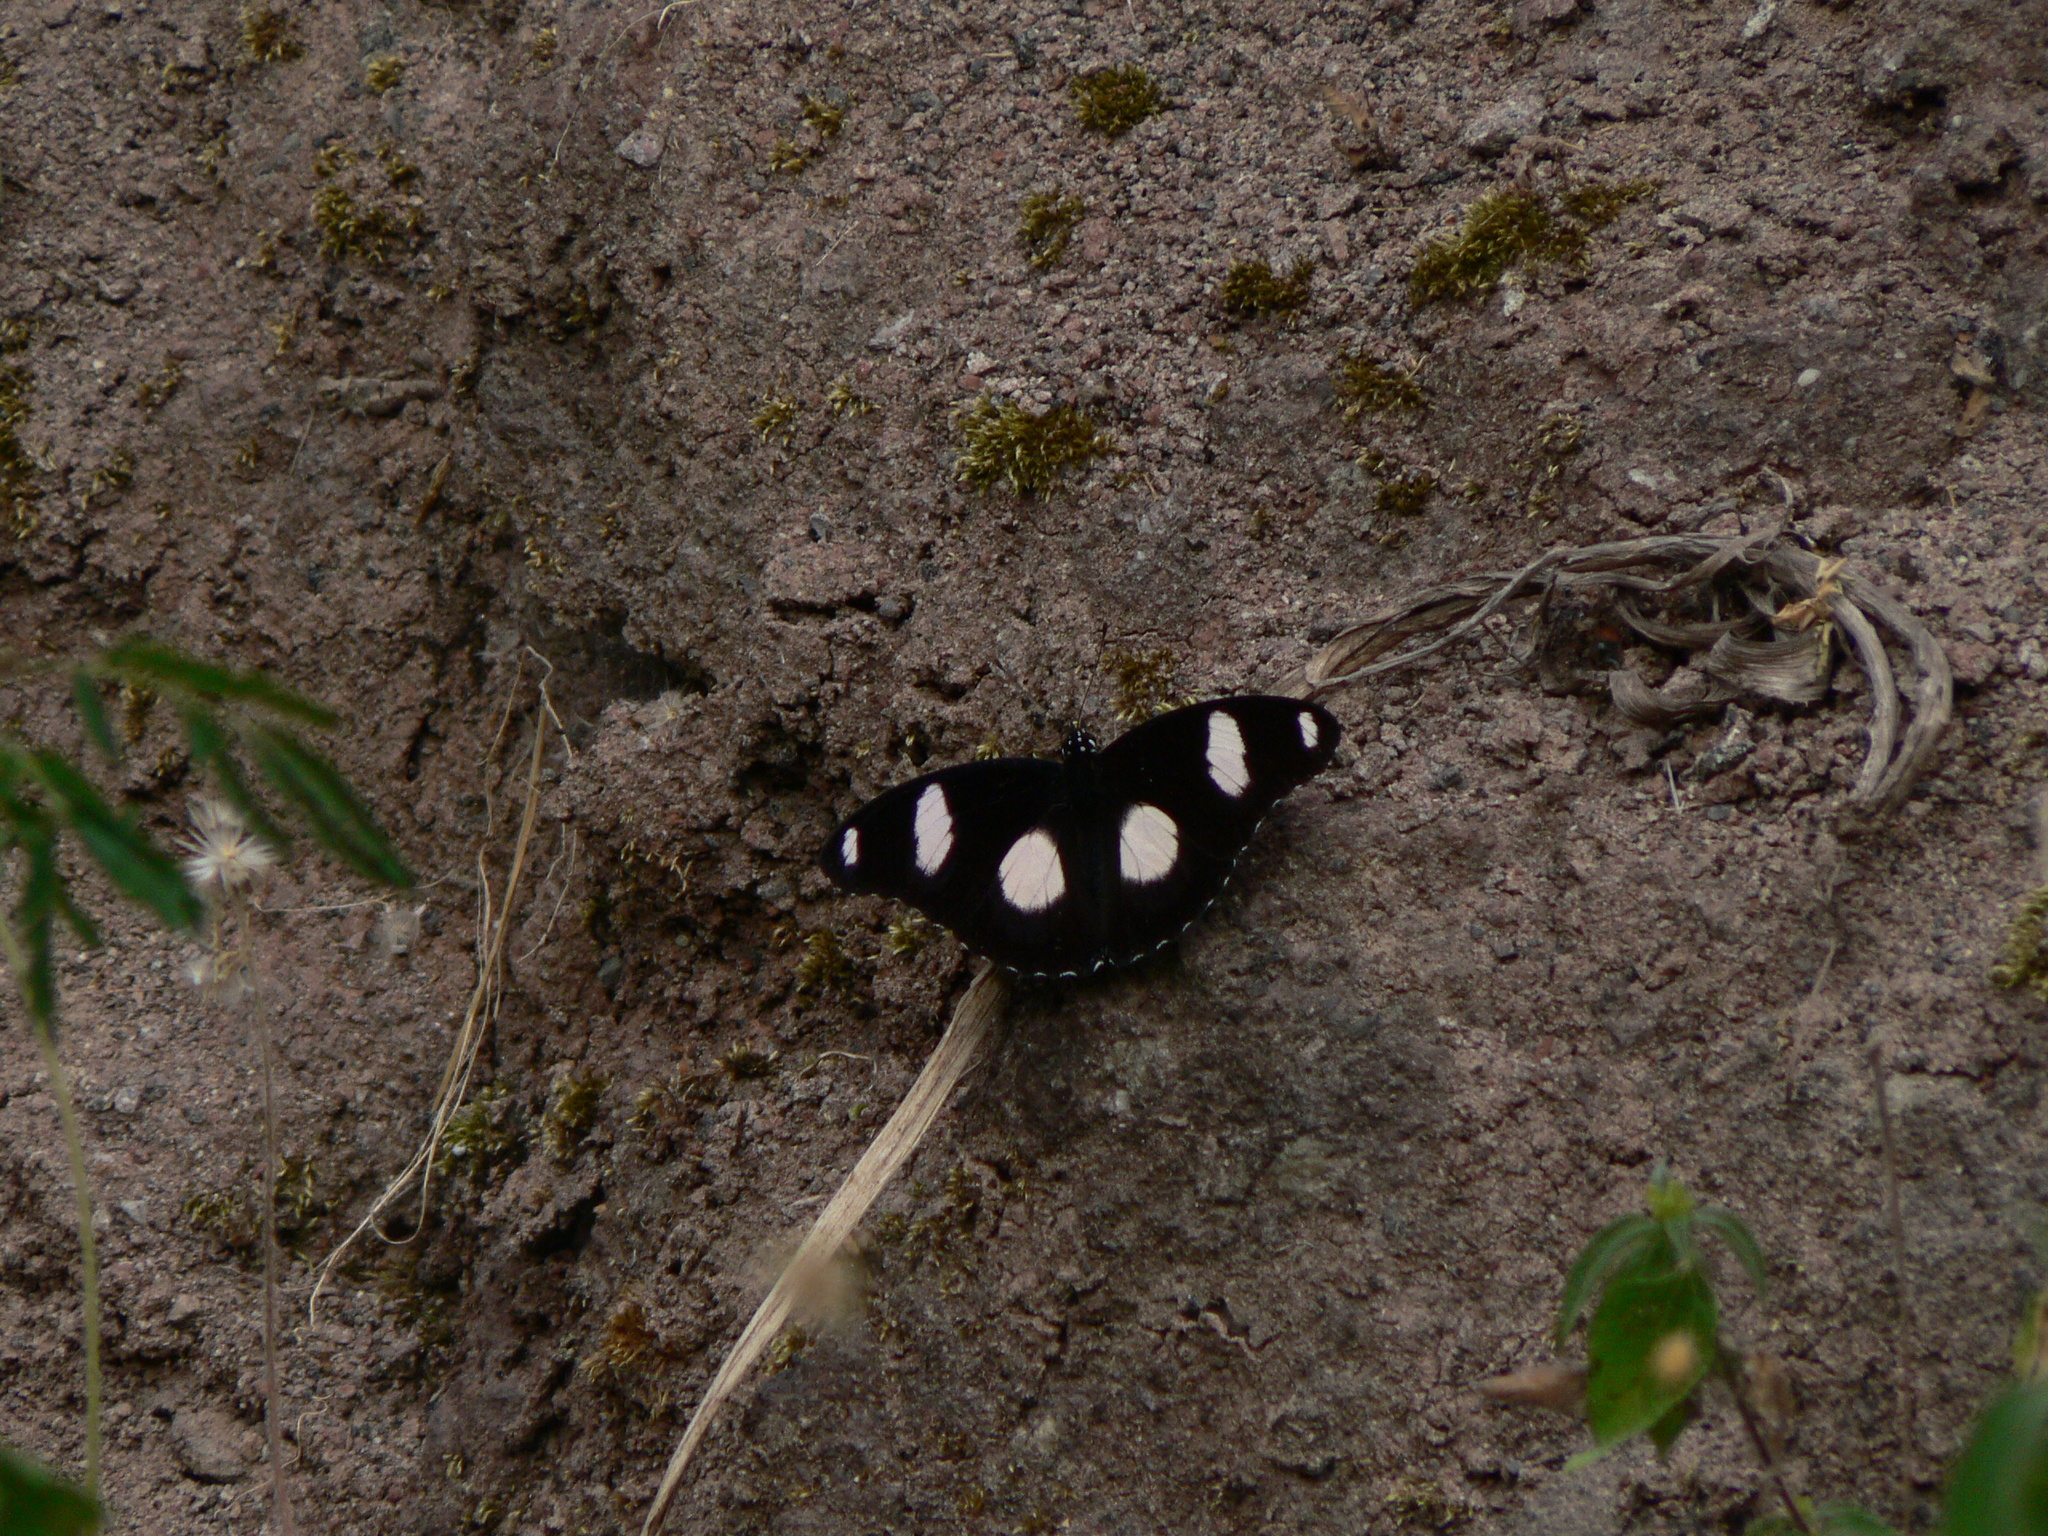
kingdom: Animalia
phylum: Arthropoda
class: Insecta
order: Lepidoptera
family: Nymphalidae
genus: Hypolimnas
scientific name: Hypolimnas misippus
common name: False plain tiger
